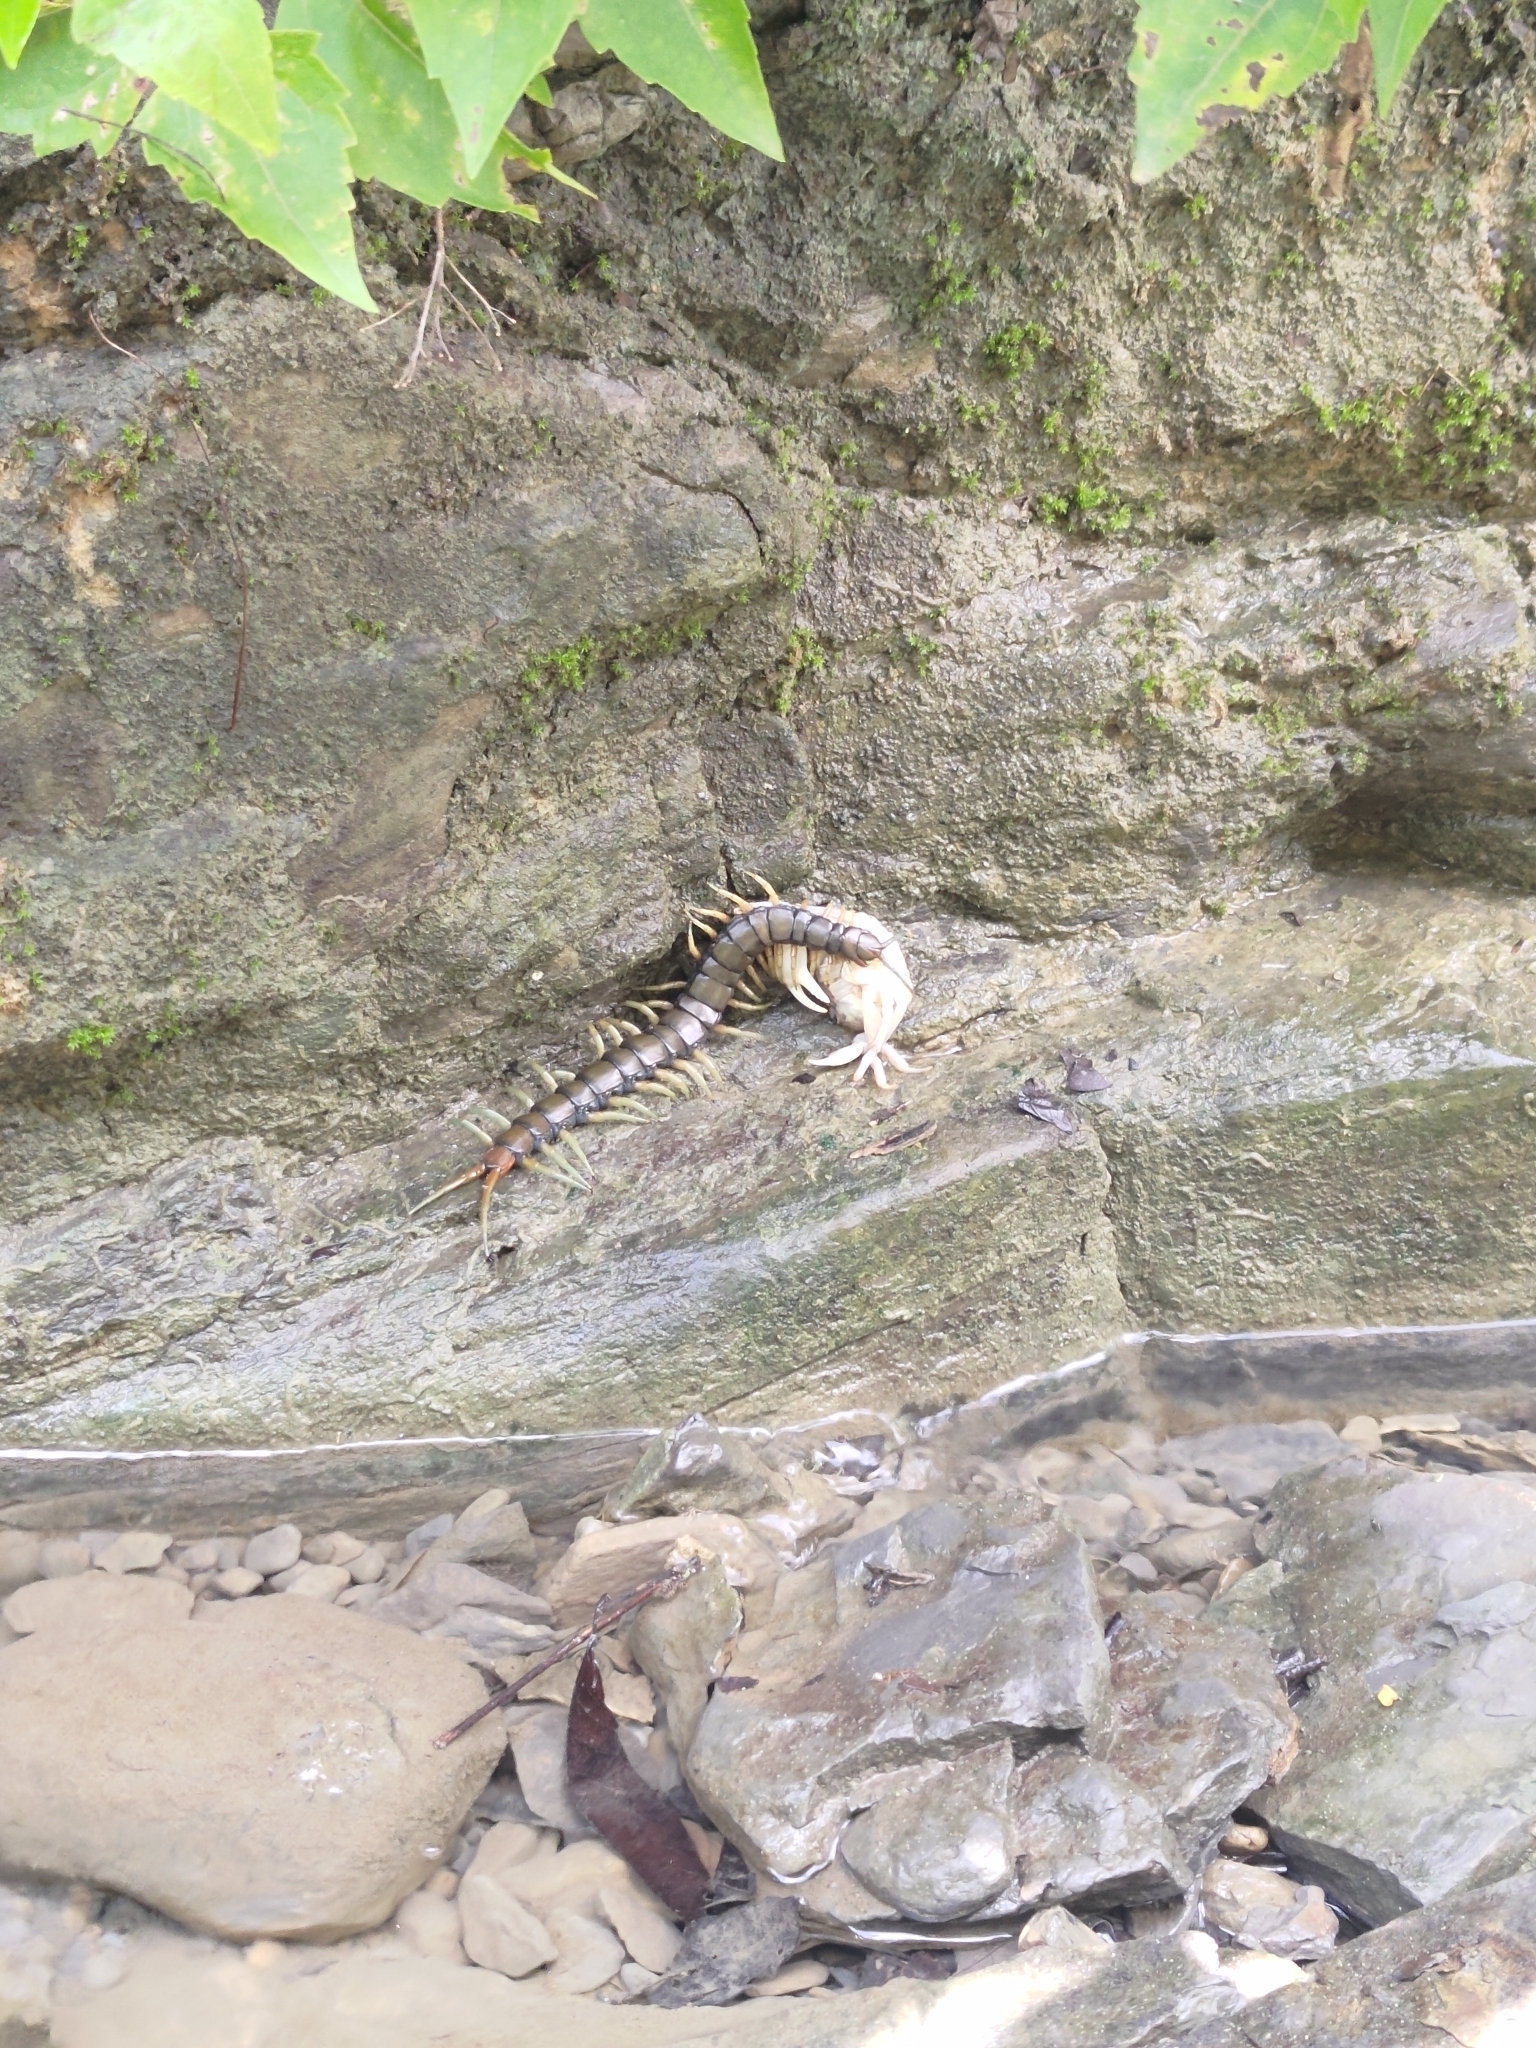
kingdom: Animalia
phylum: Arthropoda
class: Chilopoda
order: Scolopendromorpha
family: Scolopendridae
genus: Scolopendra
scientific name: Scolopendra alcyona
